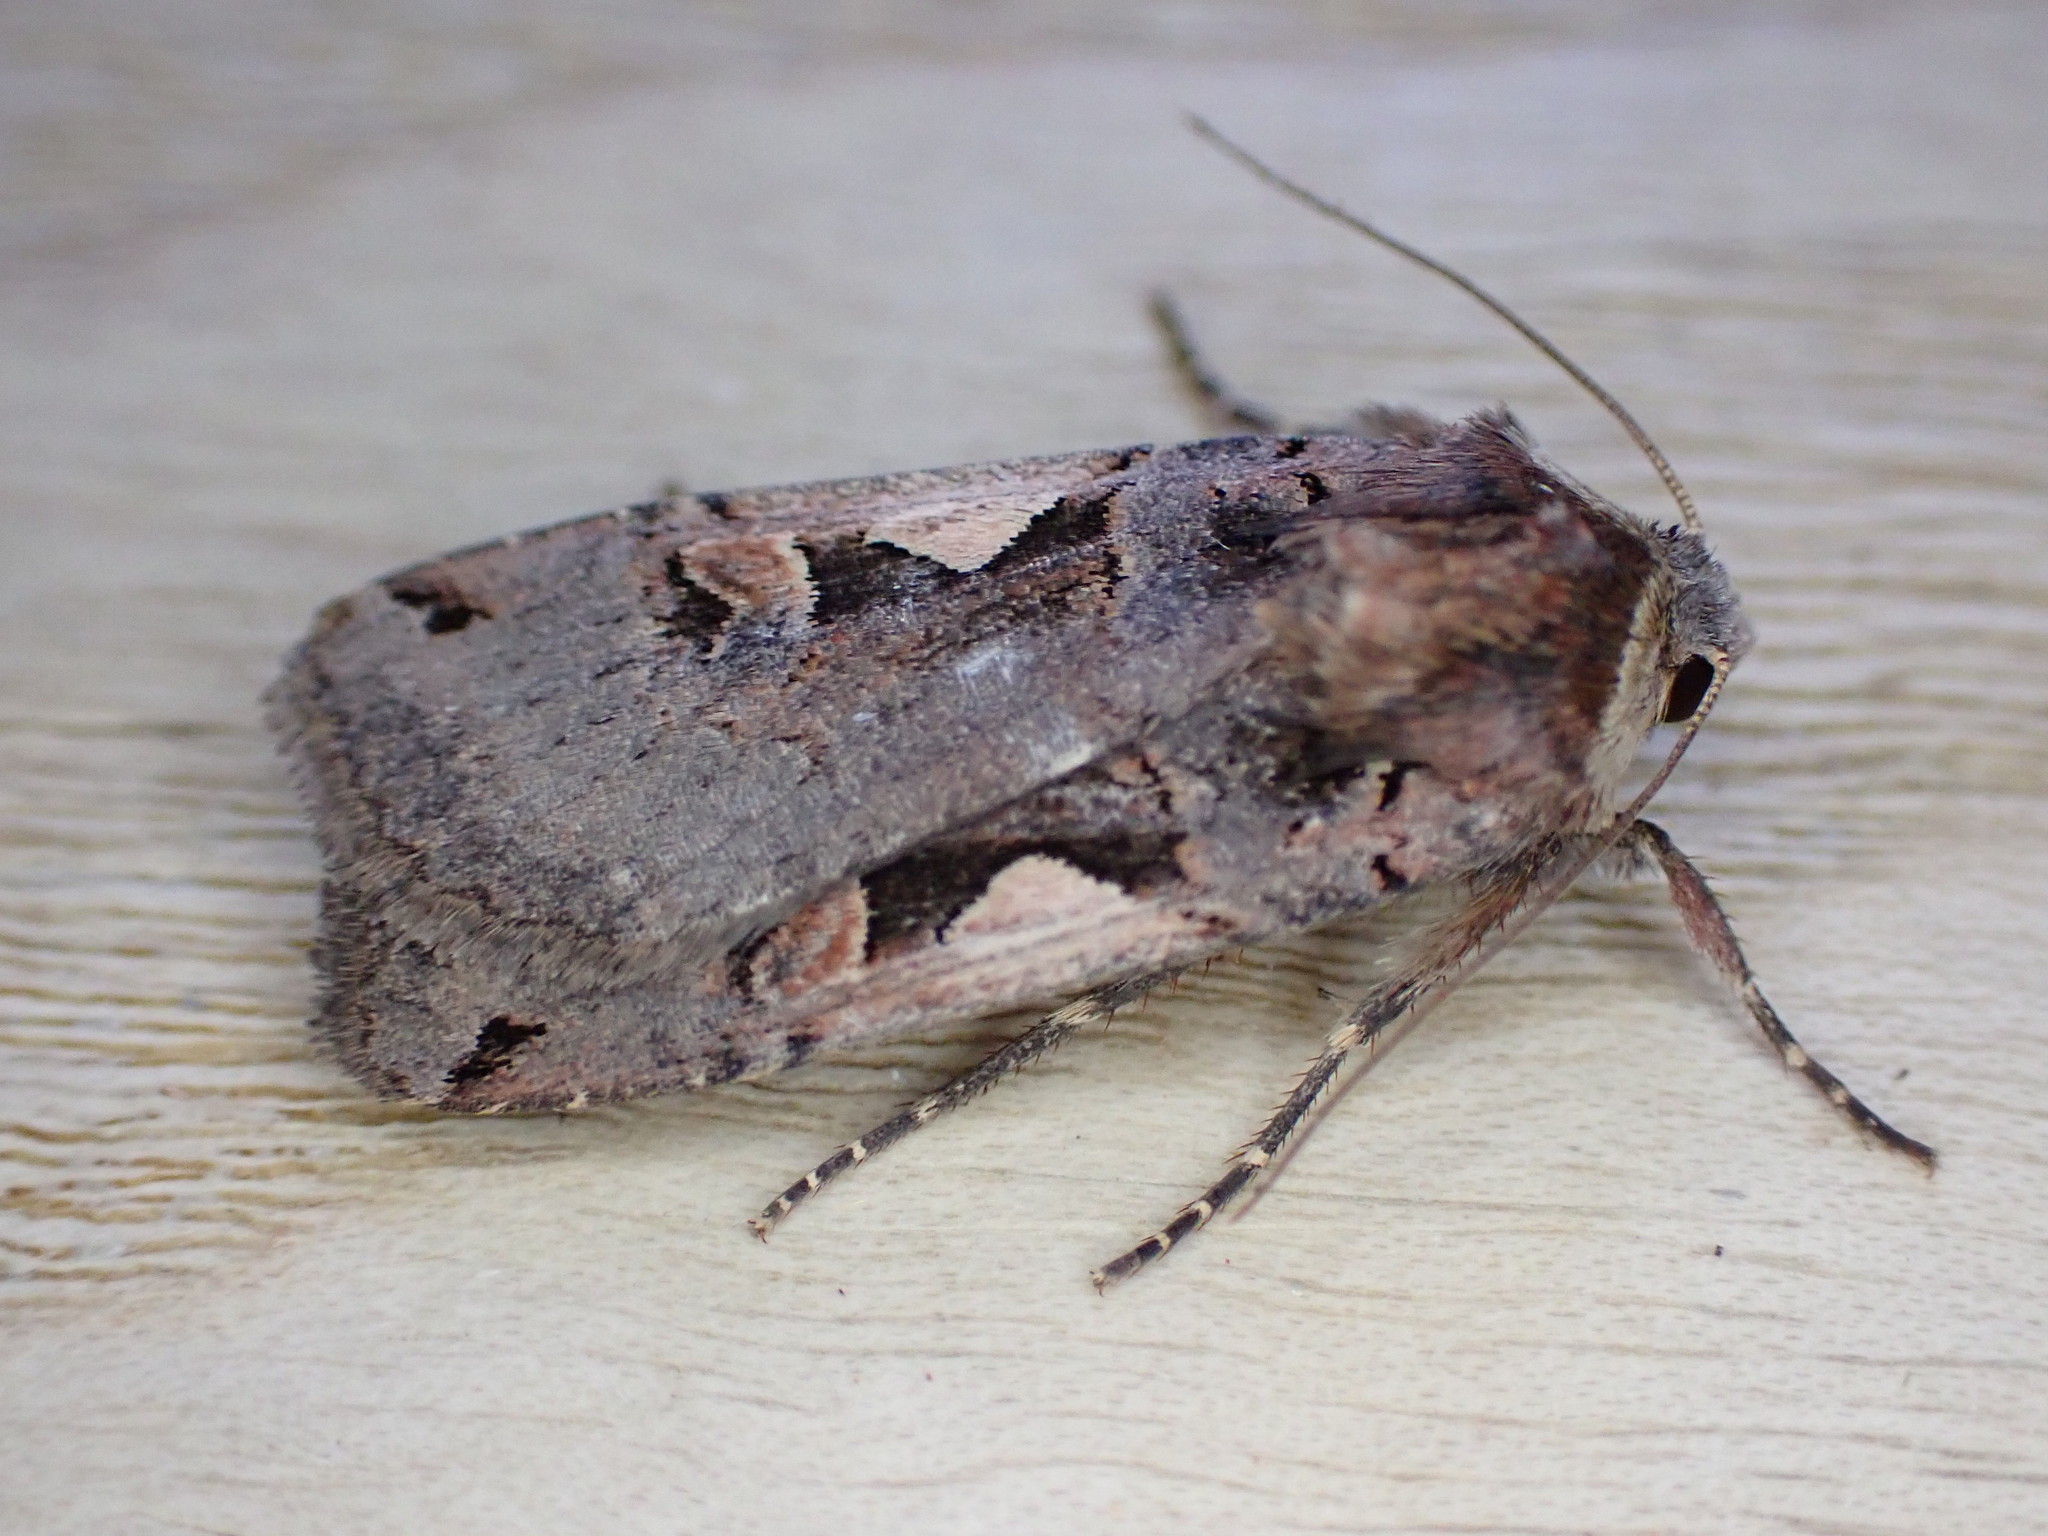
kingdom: Animalia
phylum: Arthropoda
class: Insecta
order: Lepidoptera
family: Noctuidae
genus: Xestia
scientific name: Xestia c-nigrum
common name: Setaceous hebrew character
